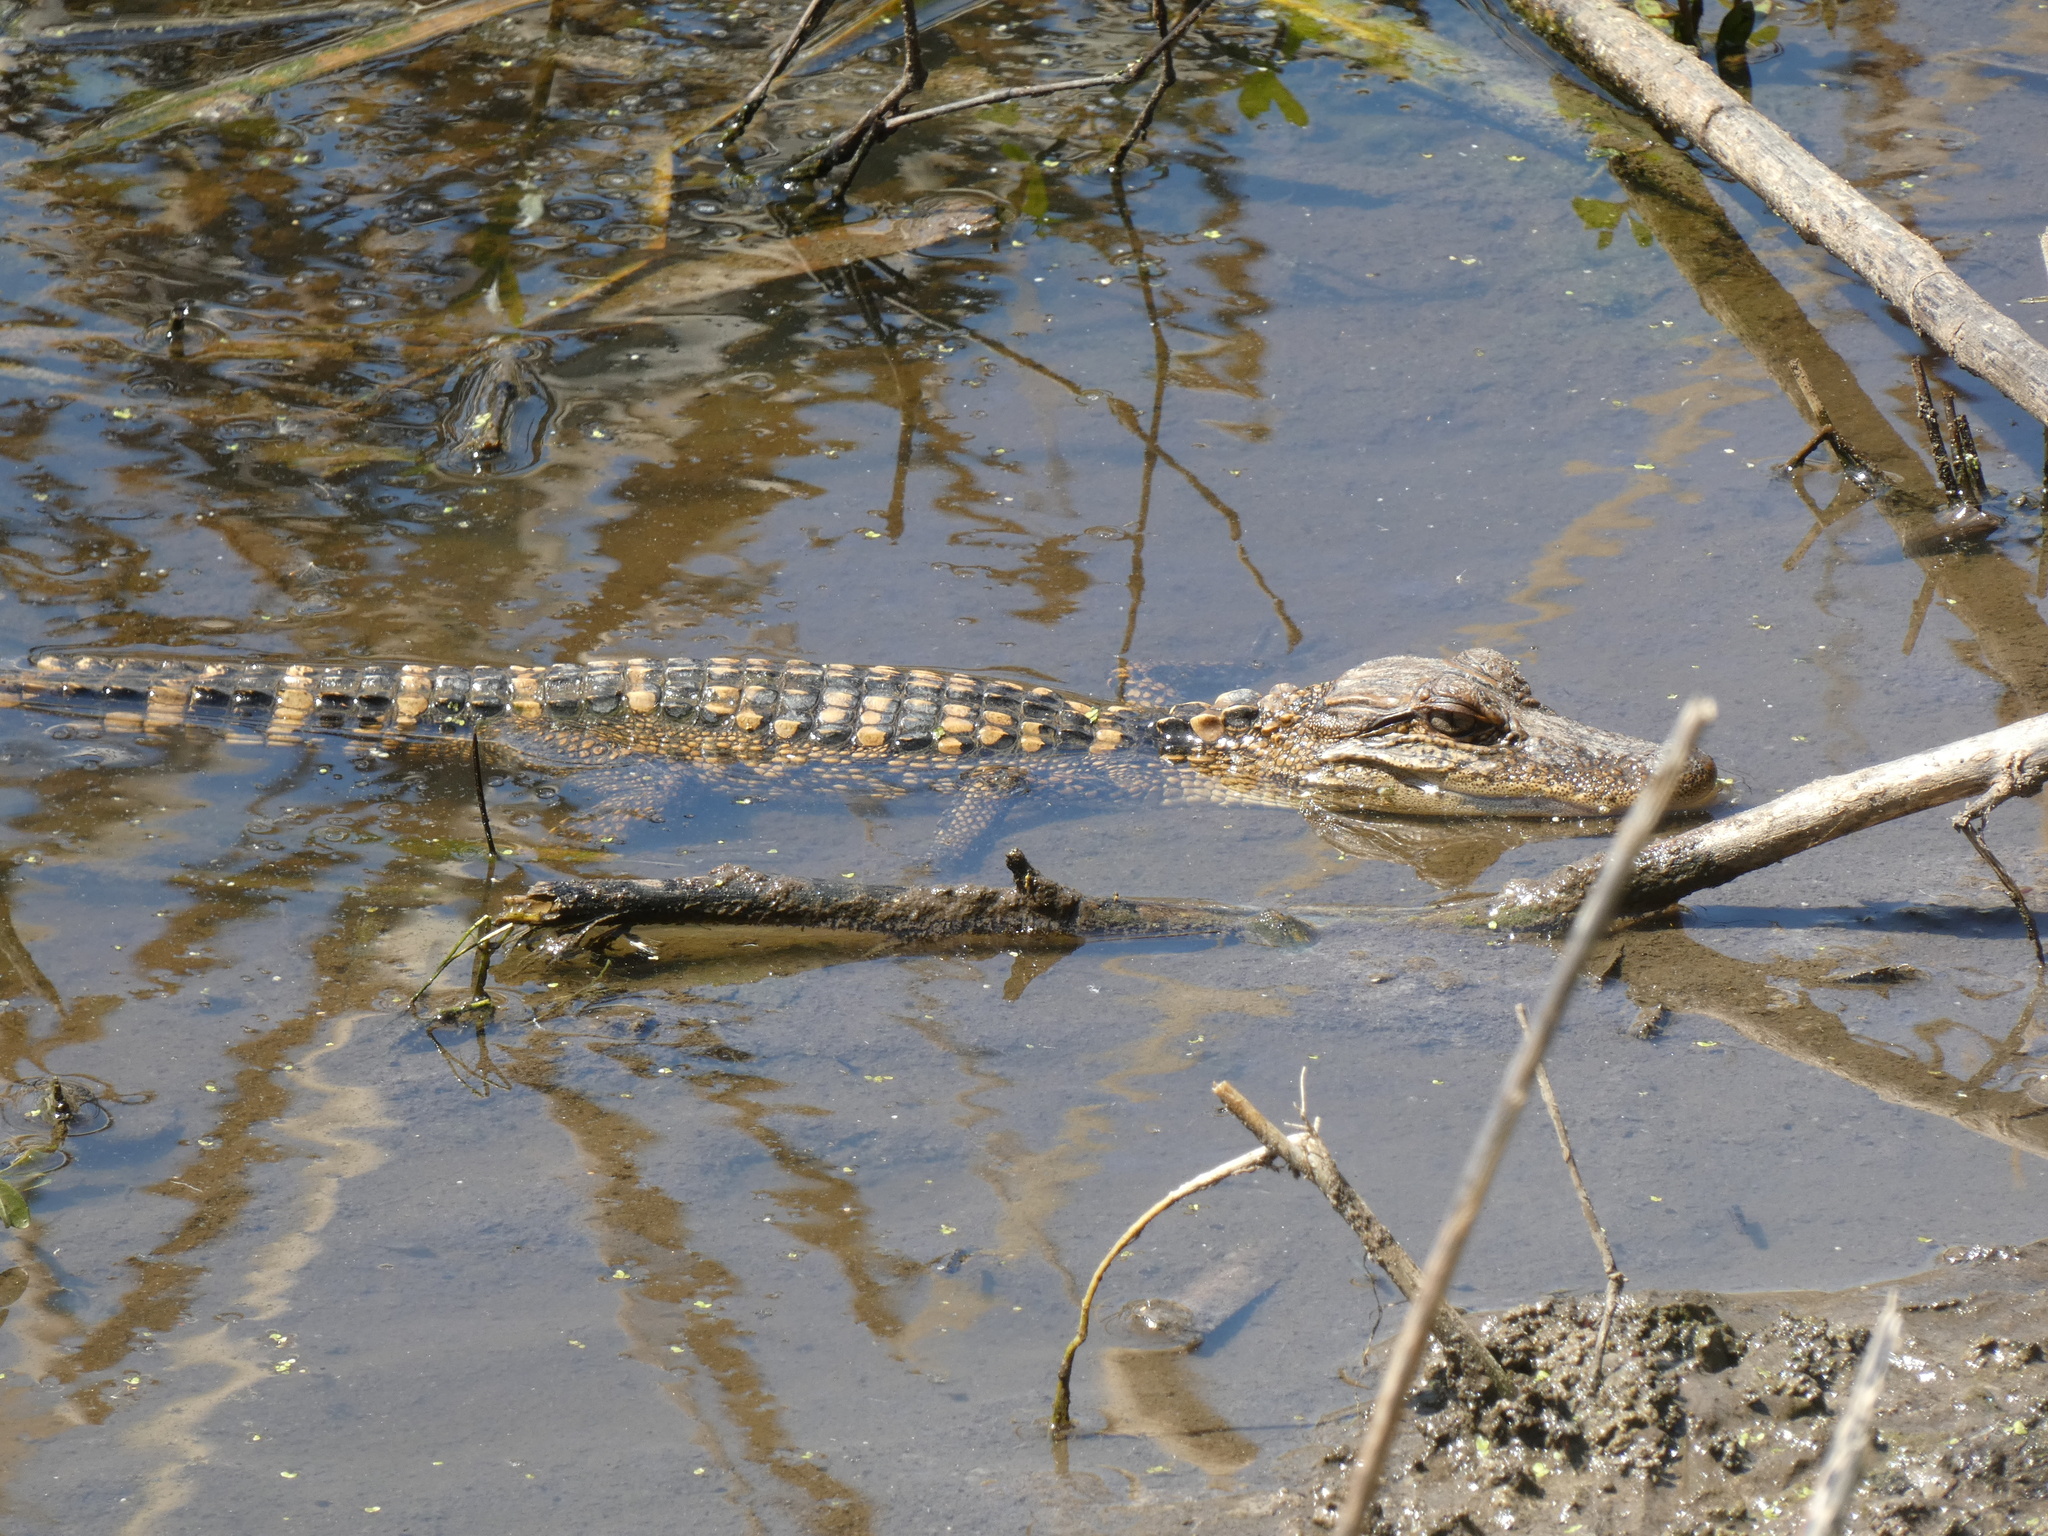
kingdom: Animalia
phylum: Chordata
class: Crocodylia
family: Alligatoridae
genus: Alligator
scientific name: Alligator mississippiensis
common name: American alligator
